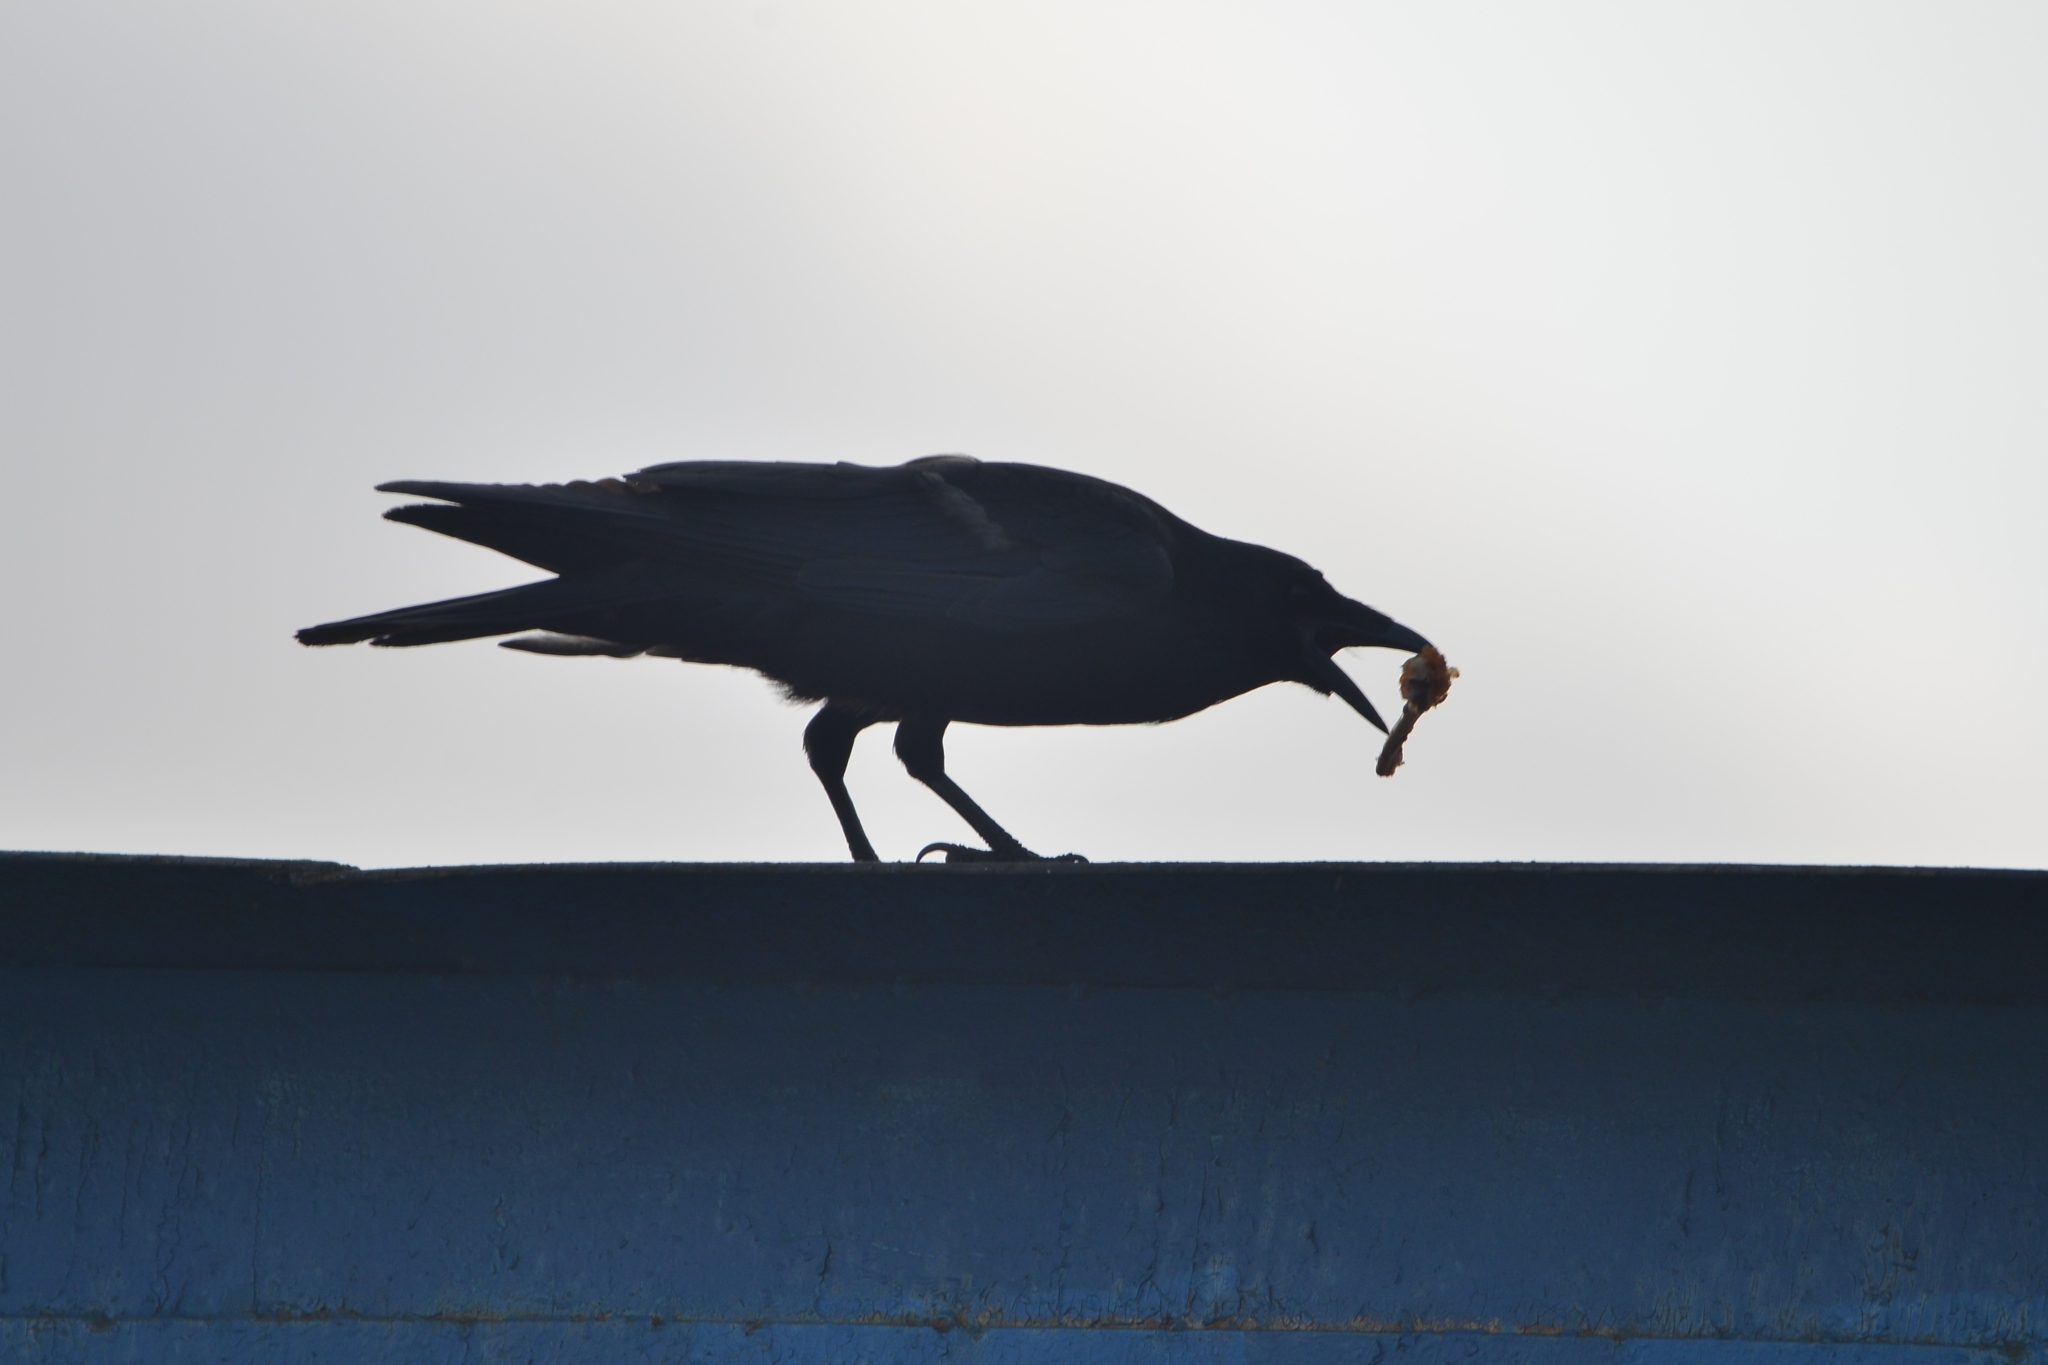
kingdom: Animalia
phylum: Chordata
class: Aves
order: Passeriformes
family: Corvidae
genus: Corvus
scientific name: Corvus corone
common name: Carrion crow
